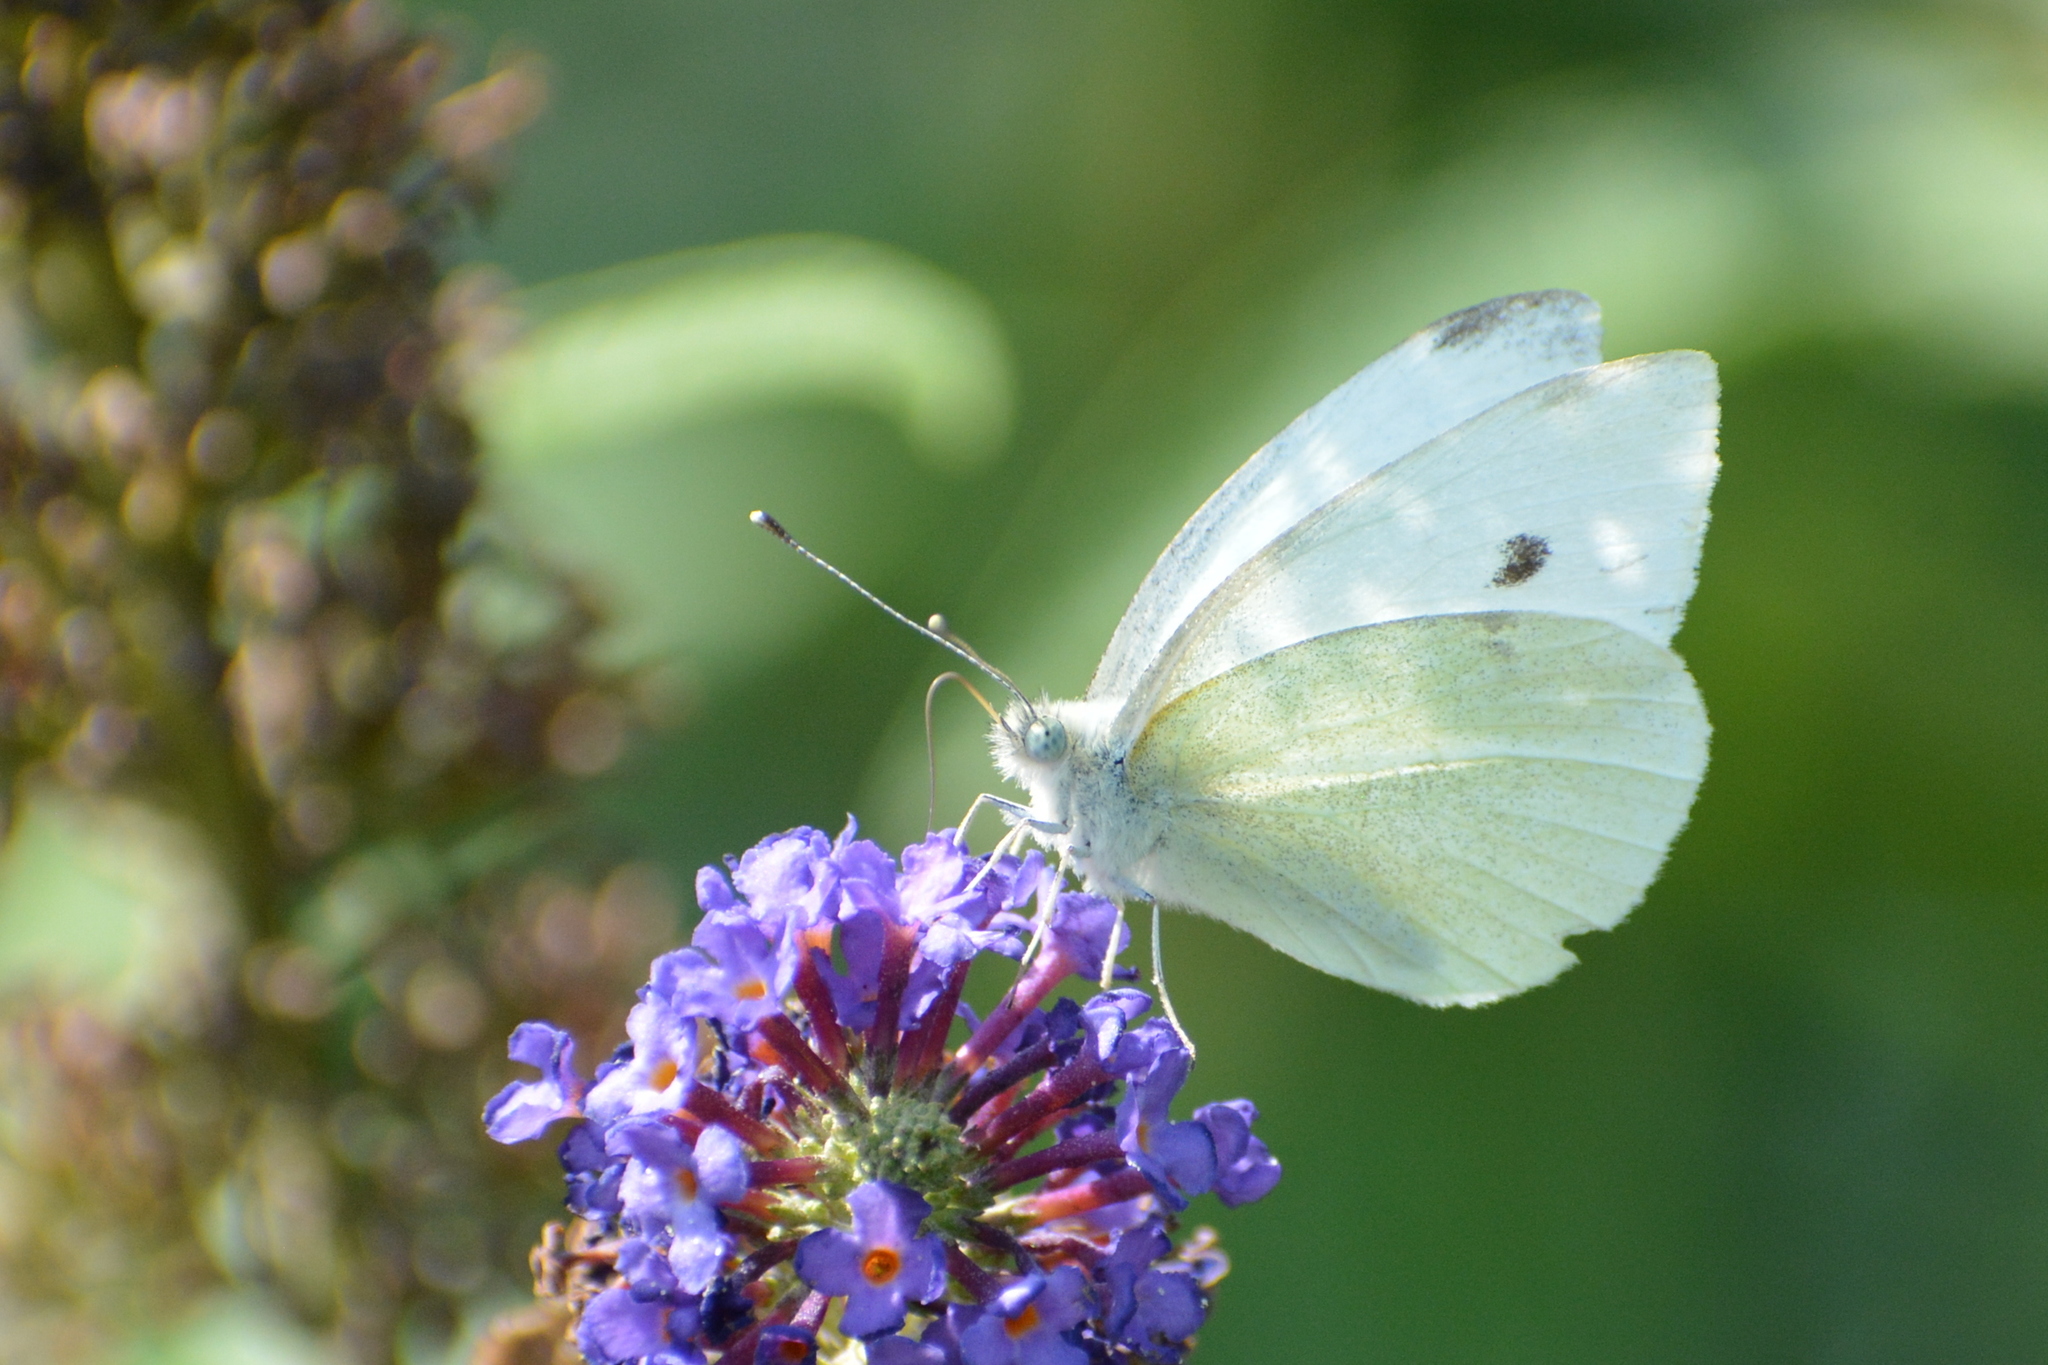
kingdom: Animalia
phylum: Arthropoda
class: Insecta
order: Lepidoptera
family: Pieridae
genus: Pieris
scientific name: Pieris rapae
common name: Small white
